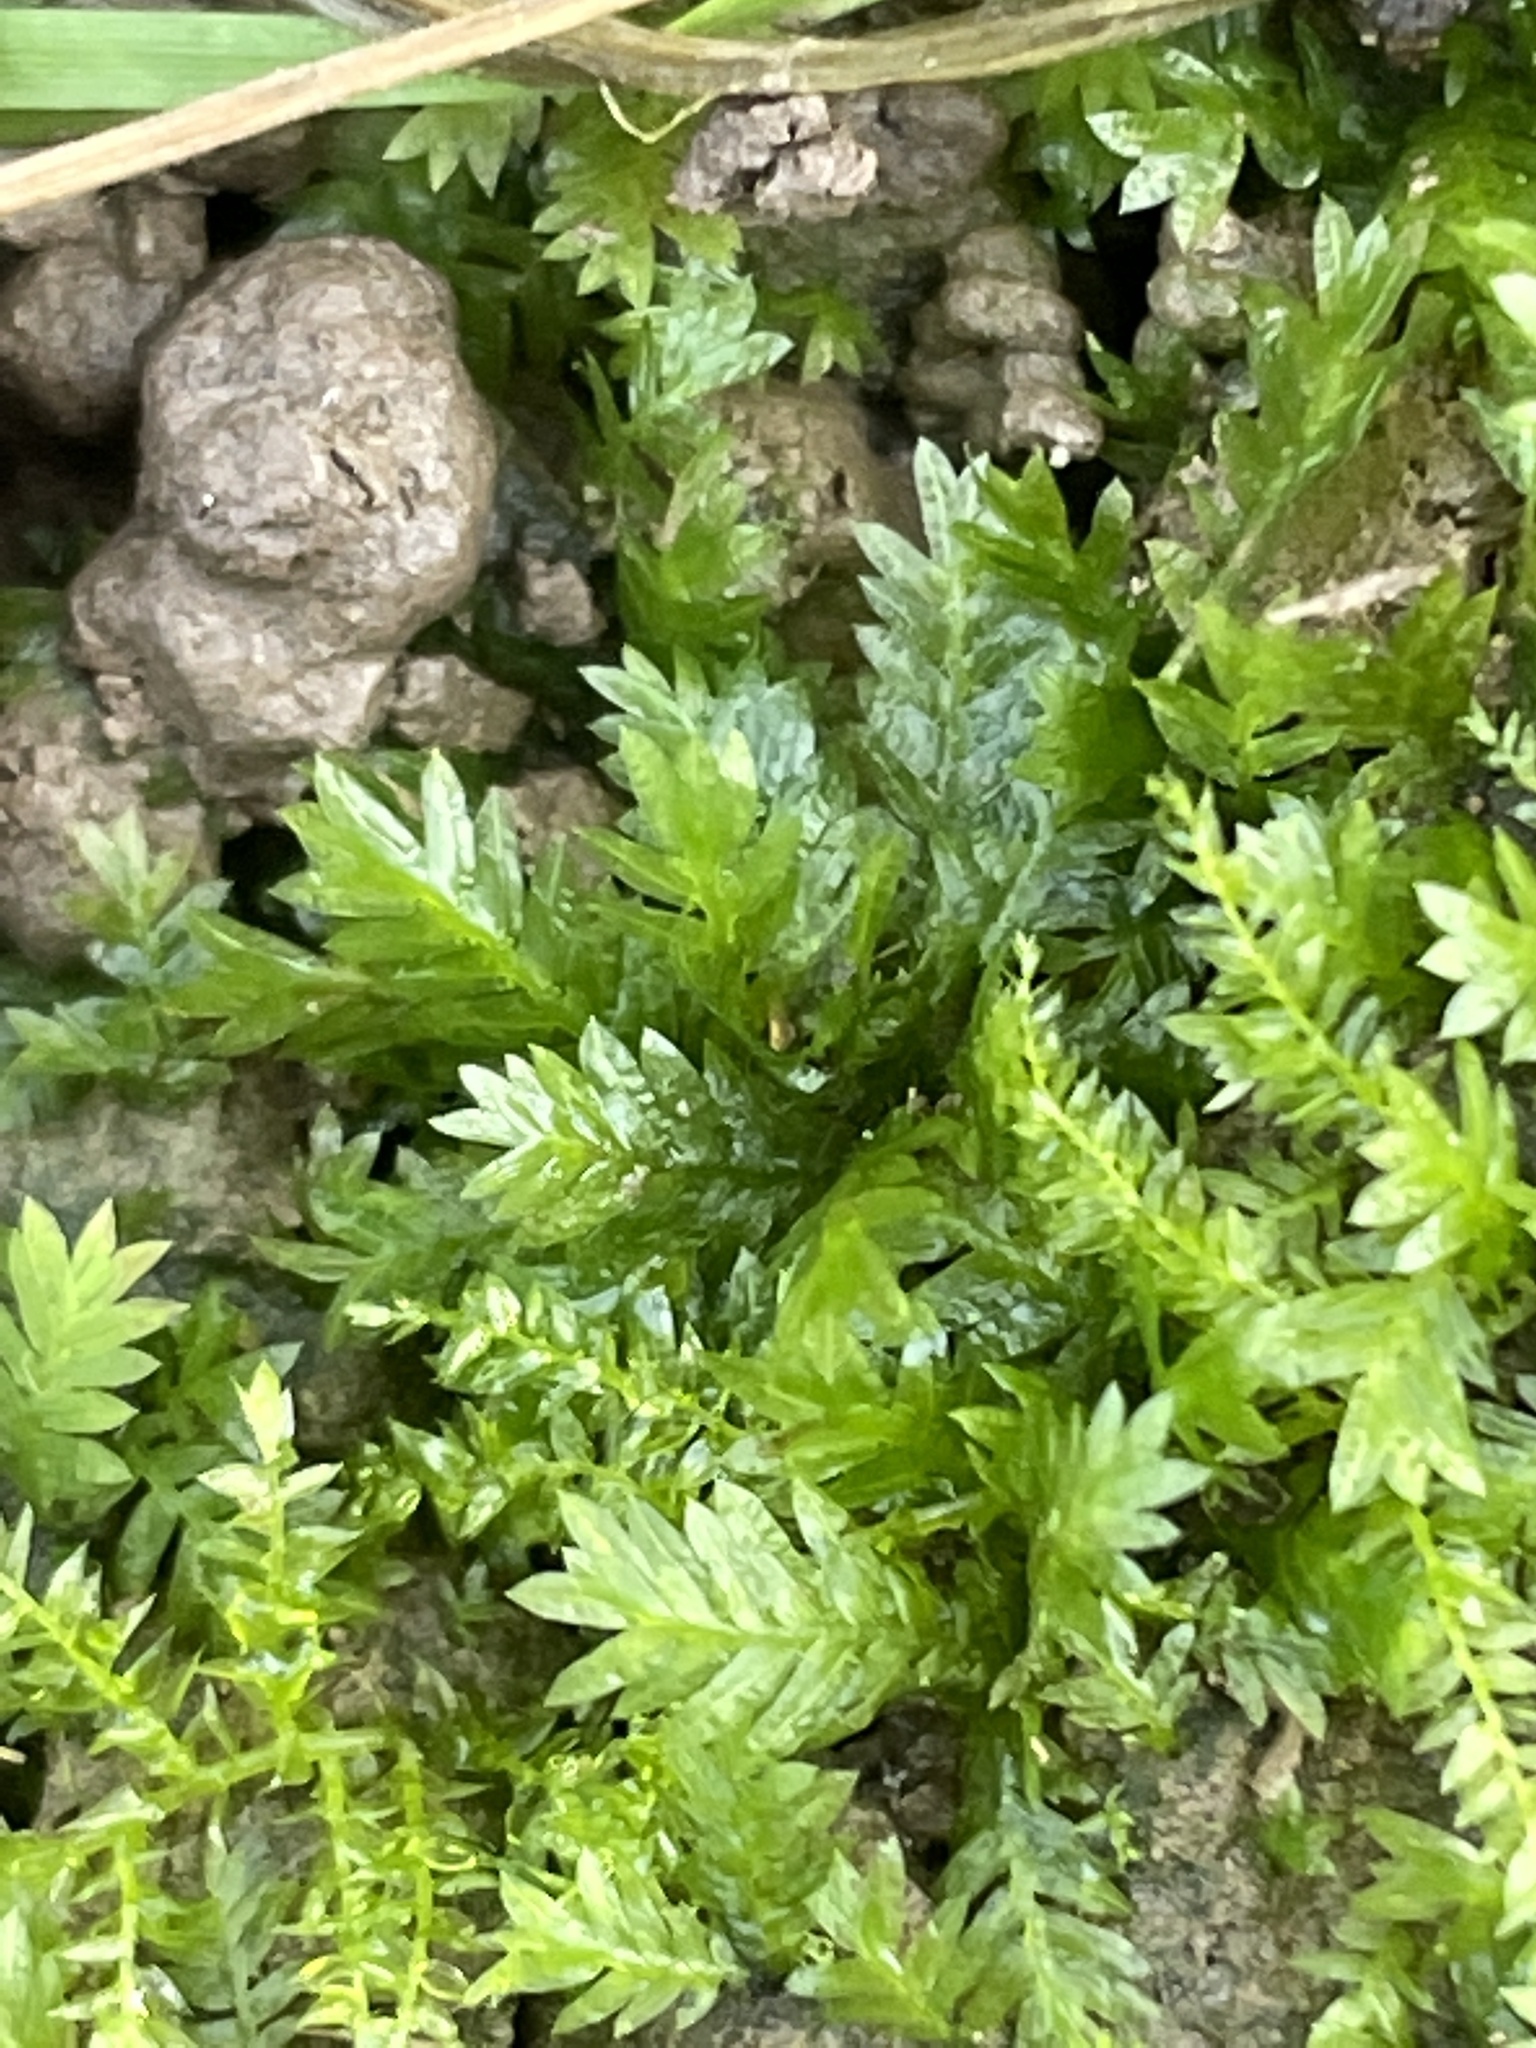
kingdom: Plantae
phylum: Bryophyta
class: Bryopsida
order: Dicranales
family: Fissidentaceae
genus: Fissidens
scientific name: Fissidens taxifolius
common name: Yew-leaved pocket moss
